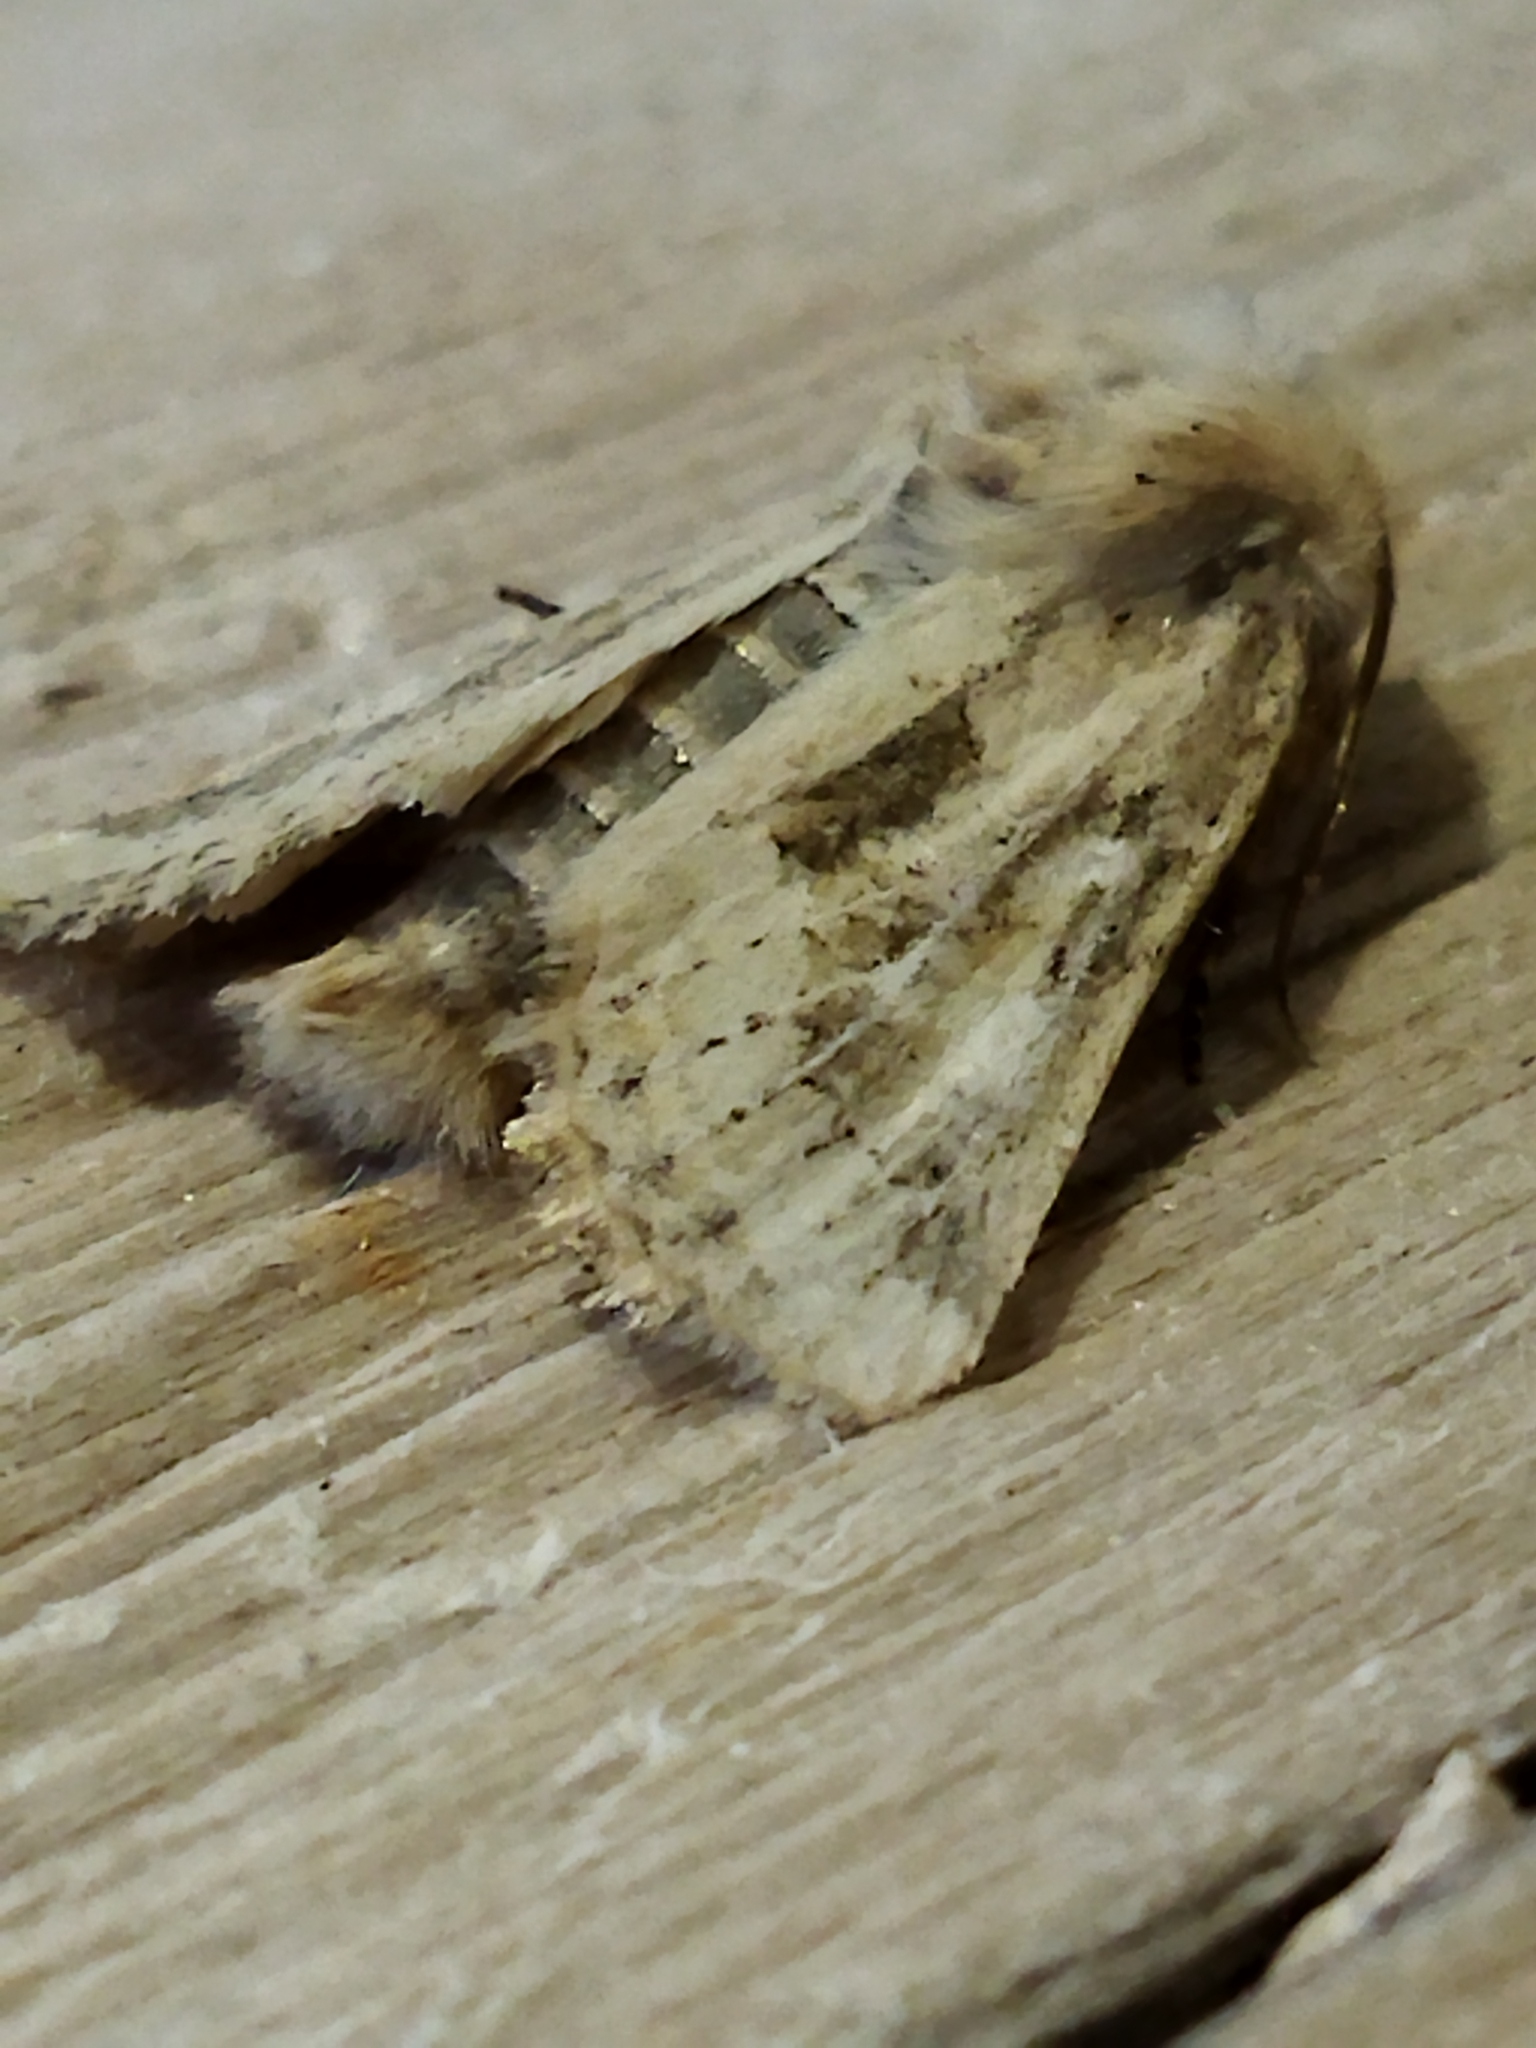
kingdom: Animalia
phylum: Arthropoda
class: Insecta
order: Lepidoptera
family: Noctuidae
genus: Luperina
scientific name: Luperina dumerilii
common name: Dumeril's rustic
